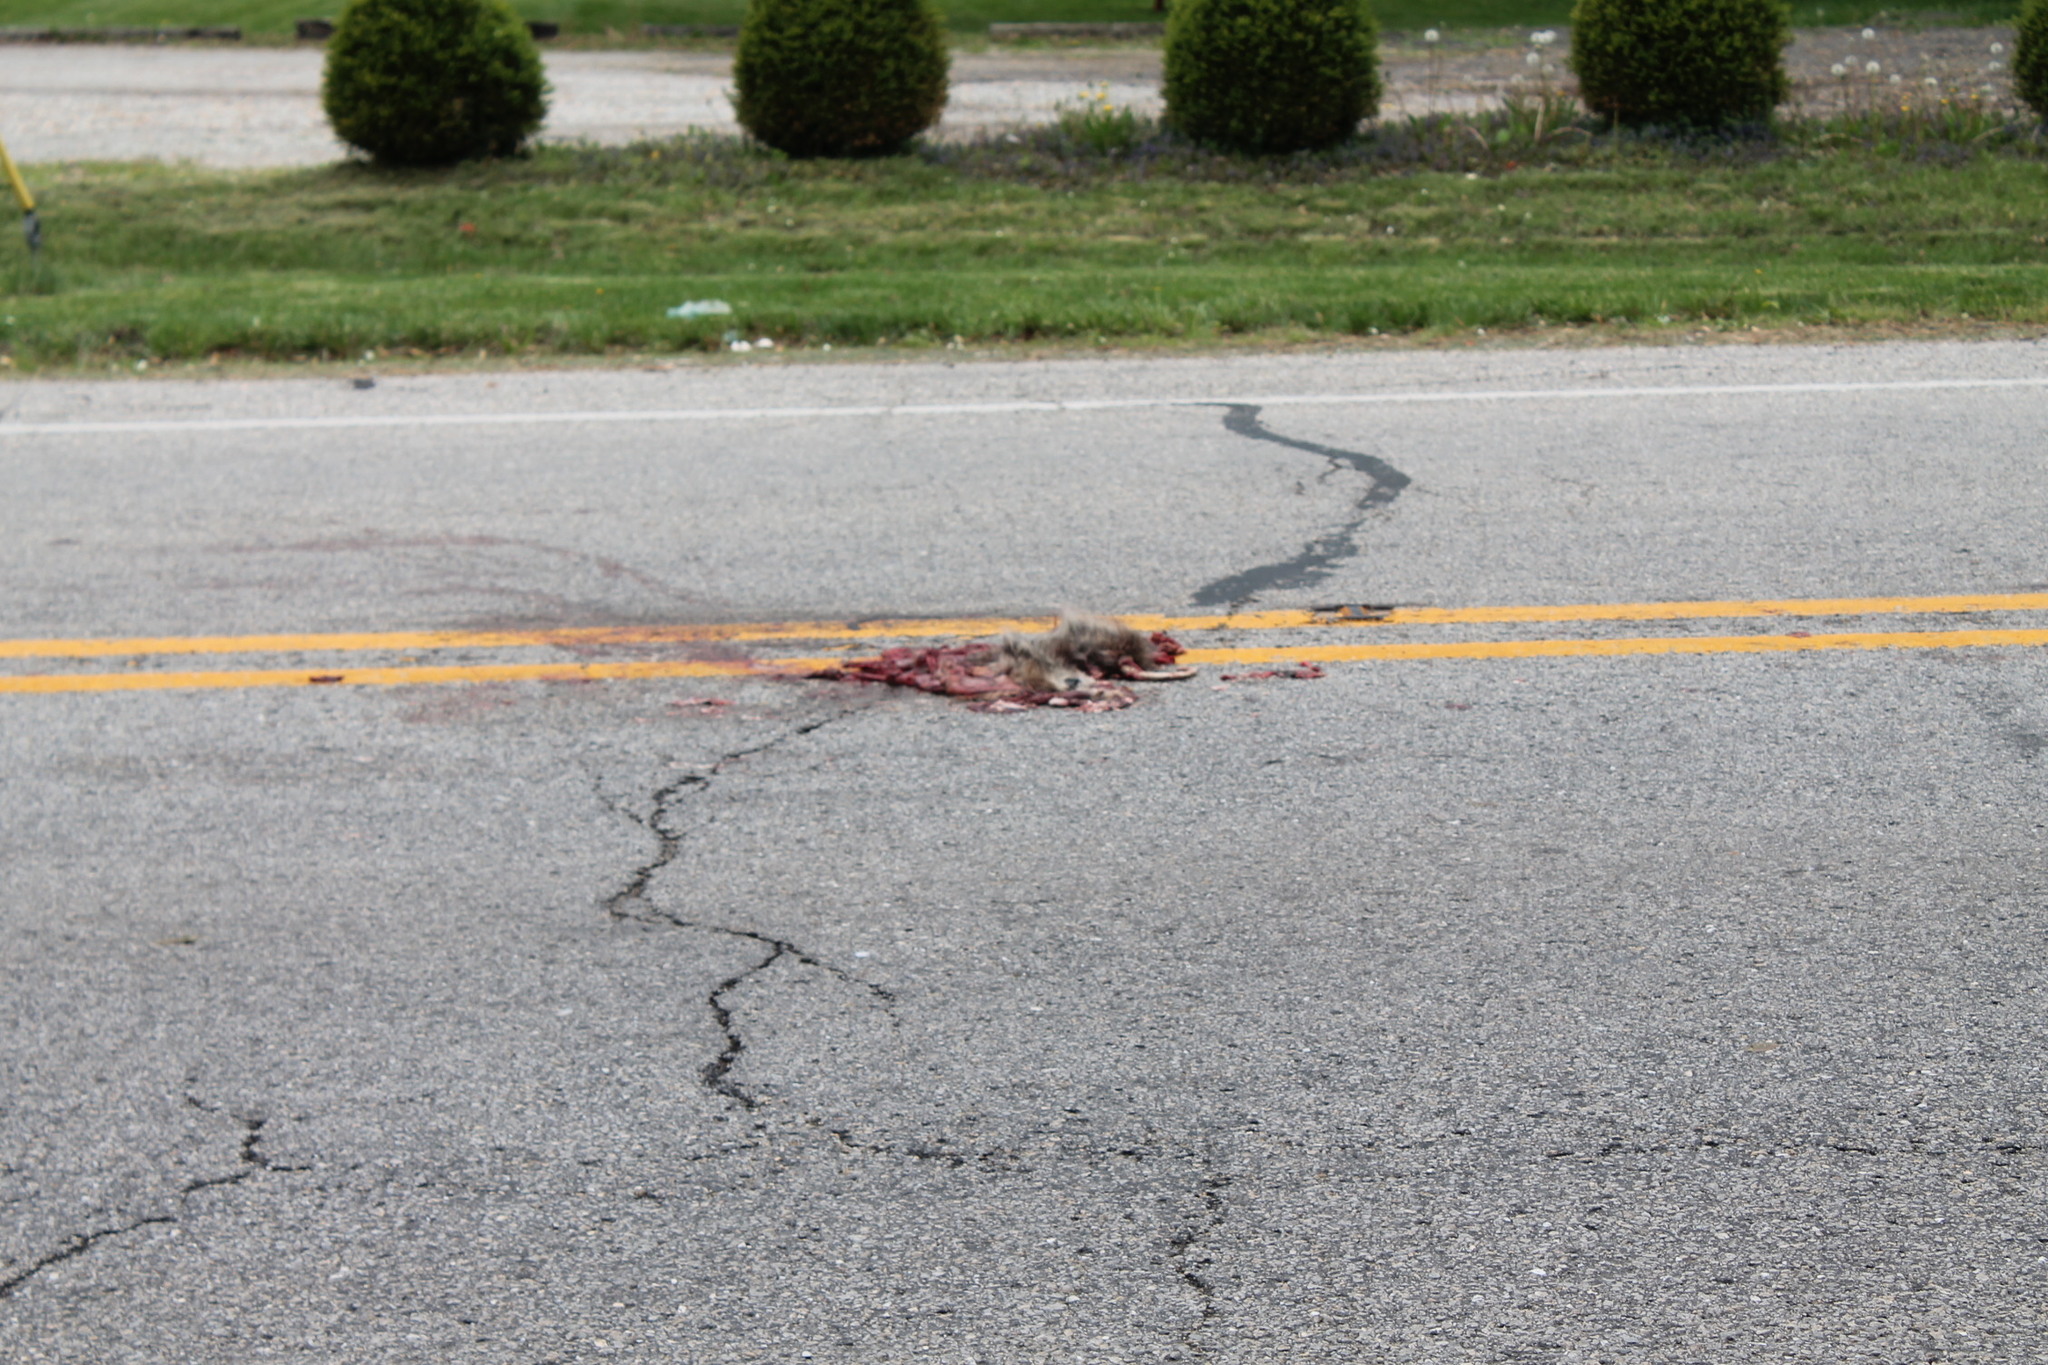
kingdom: Animalia
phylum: Chordata
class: Mammalia
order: Didelphimorphia
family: Didelphidae
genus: Didelphis
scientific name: Didelphis virginiana
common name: Virginia opossum
